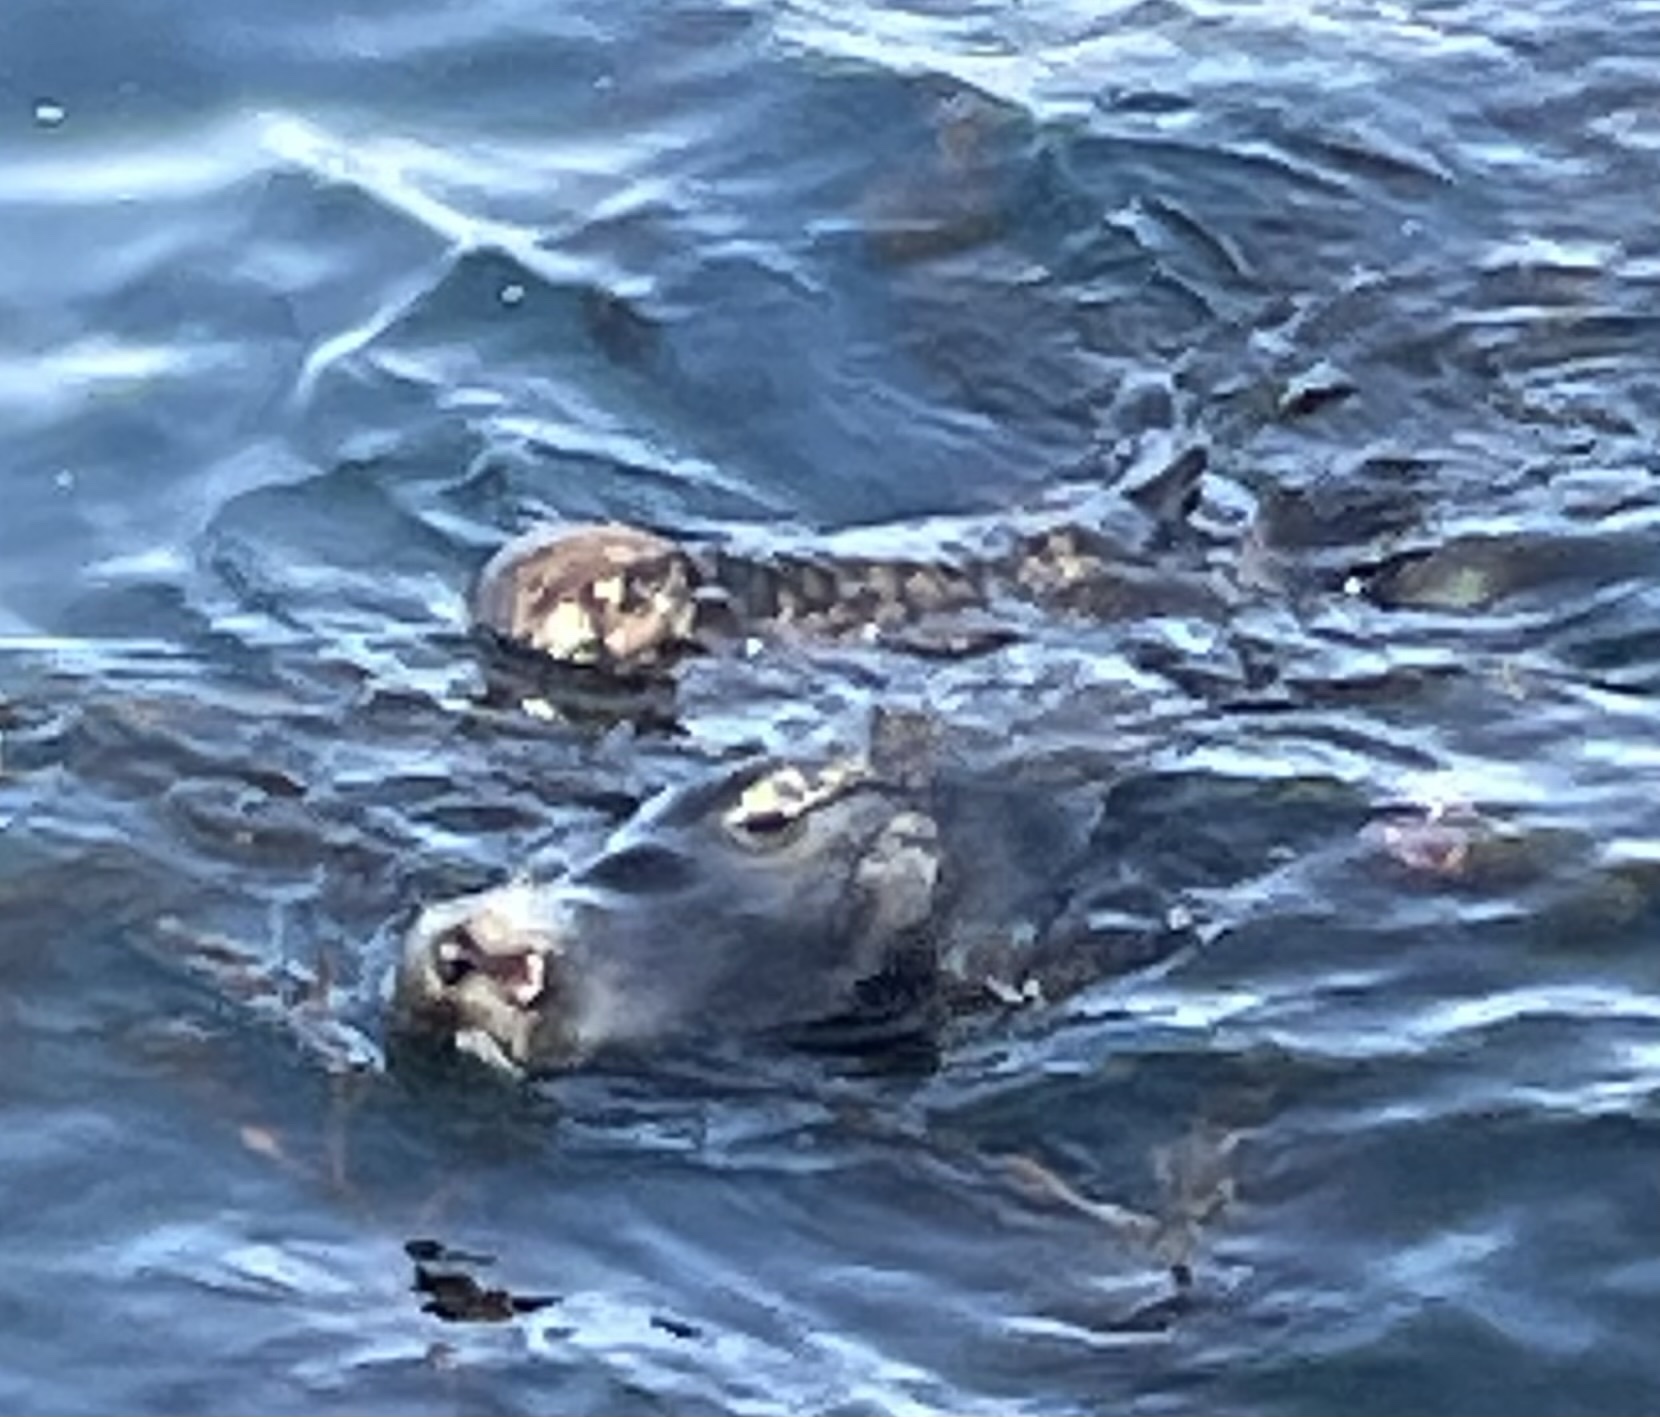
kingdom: Animalia
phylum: Chordata
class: Mammalia
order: Carnivora
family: Mustelidae
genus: Enhydra
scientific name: Enhydra lutris
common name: Sea otter
